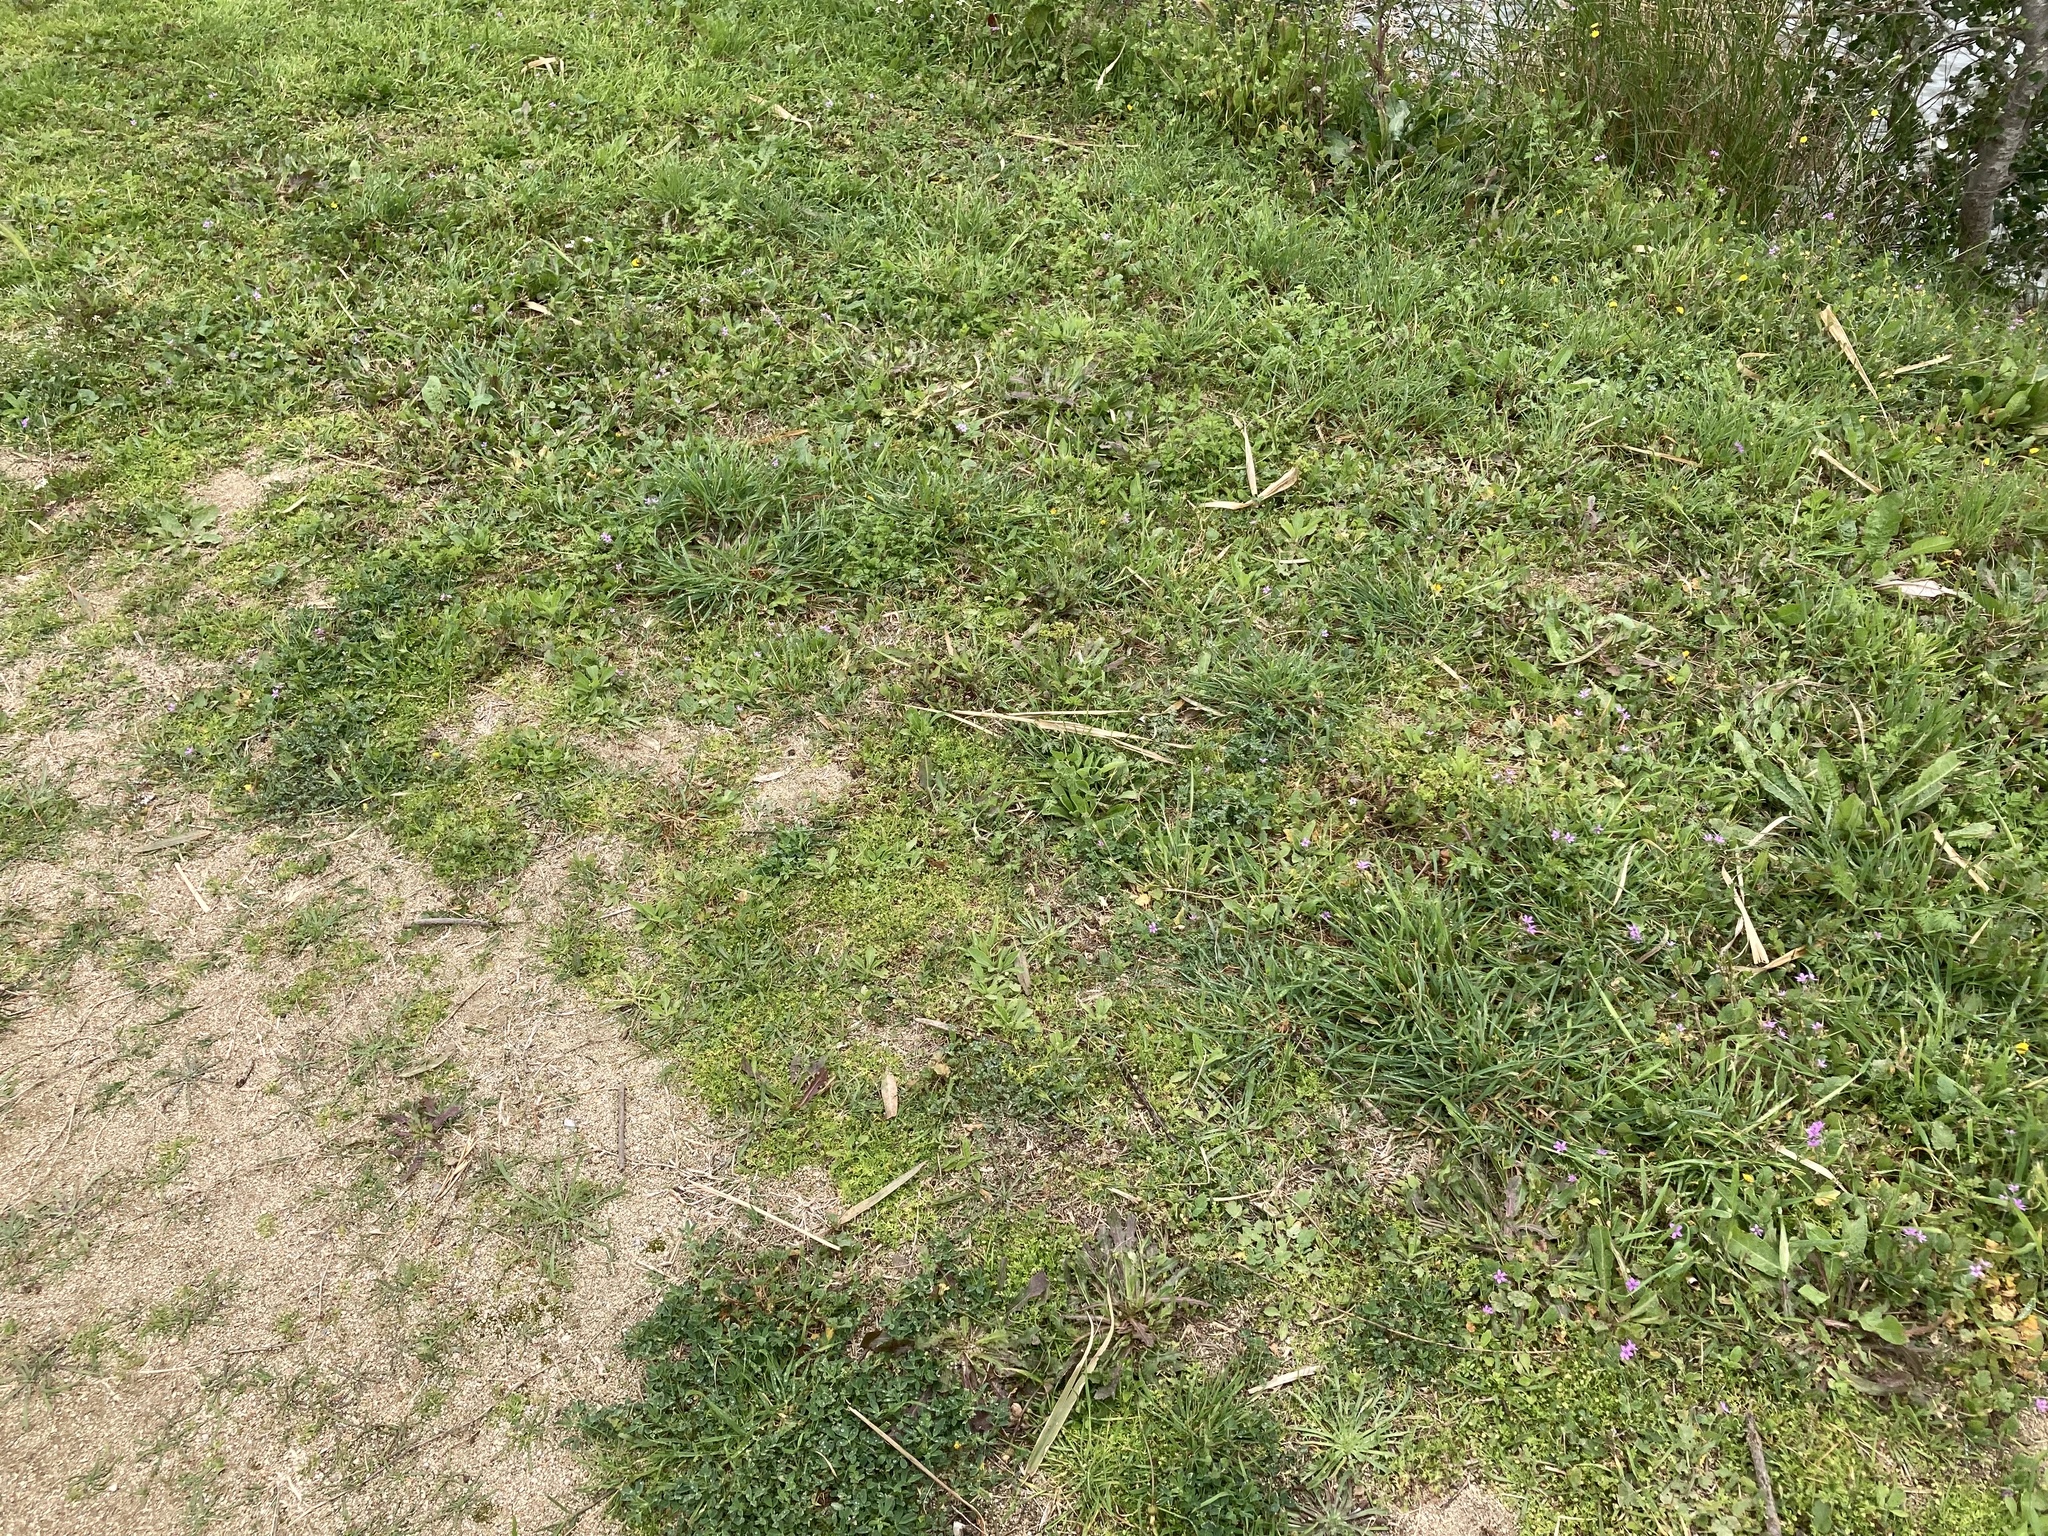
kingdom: Plantae
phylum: Tracheophyta
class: Magnoliopsida
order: Asterales
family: Asteraceae
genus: Cotula
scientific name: Cotula australis
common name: Australian waterbuttons
